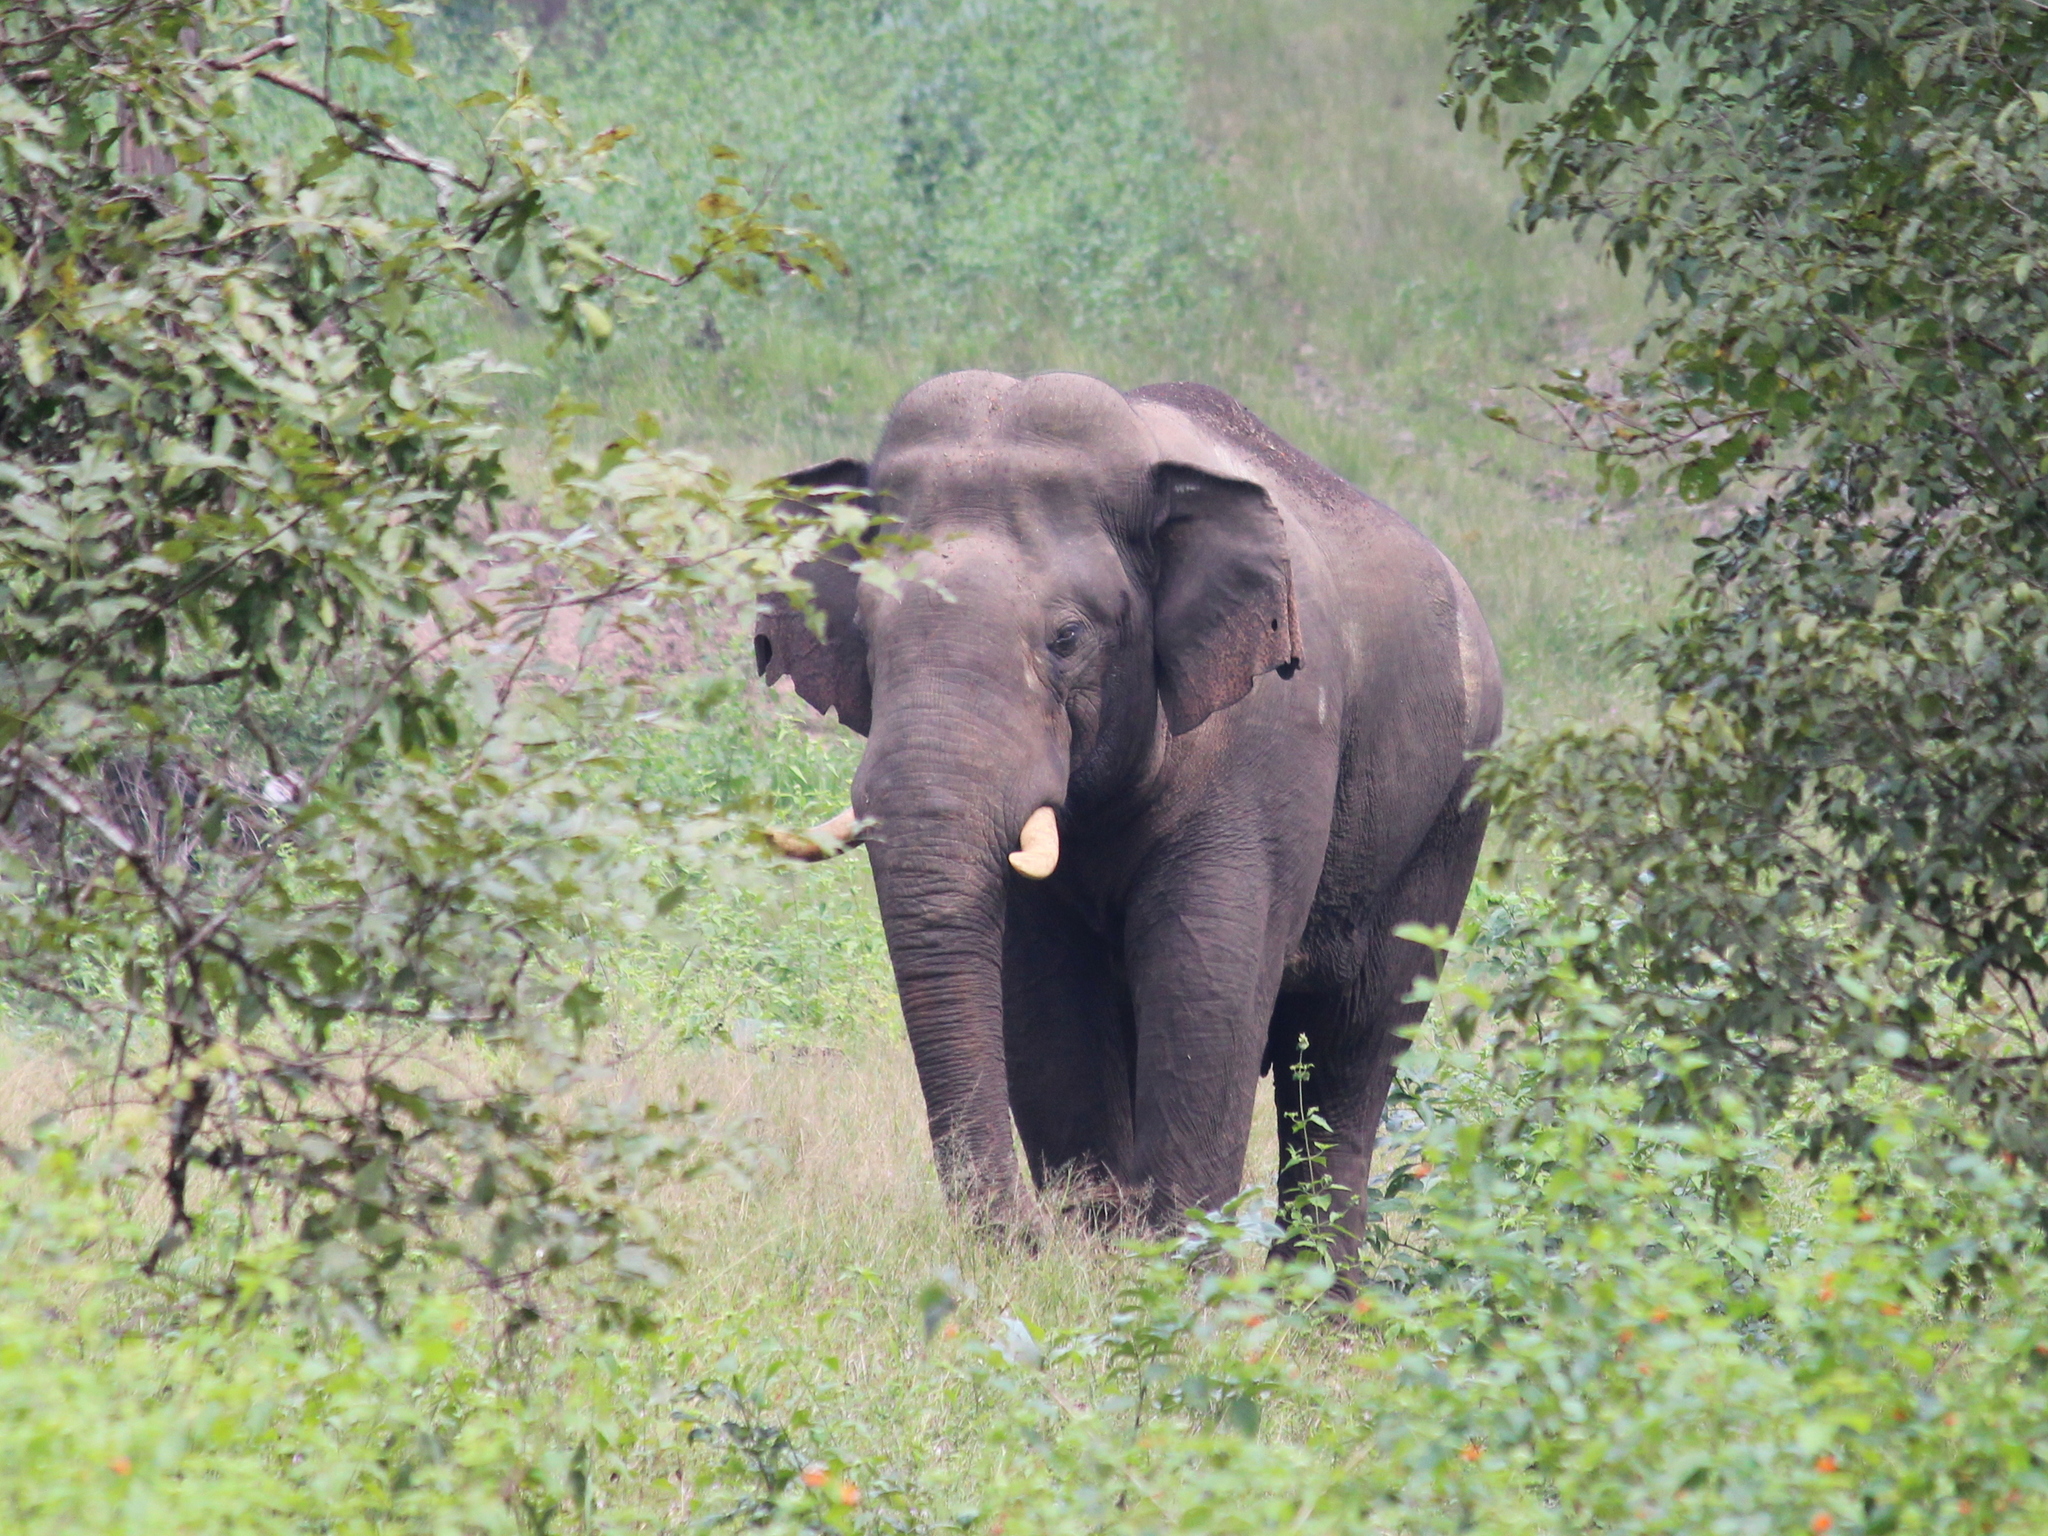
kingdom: Animalia
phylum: Chordata
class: Mammalia
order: Proboscidea
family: Elephantidae
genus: Elephas
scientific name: Elephas maximus
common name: Asian elephant
